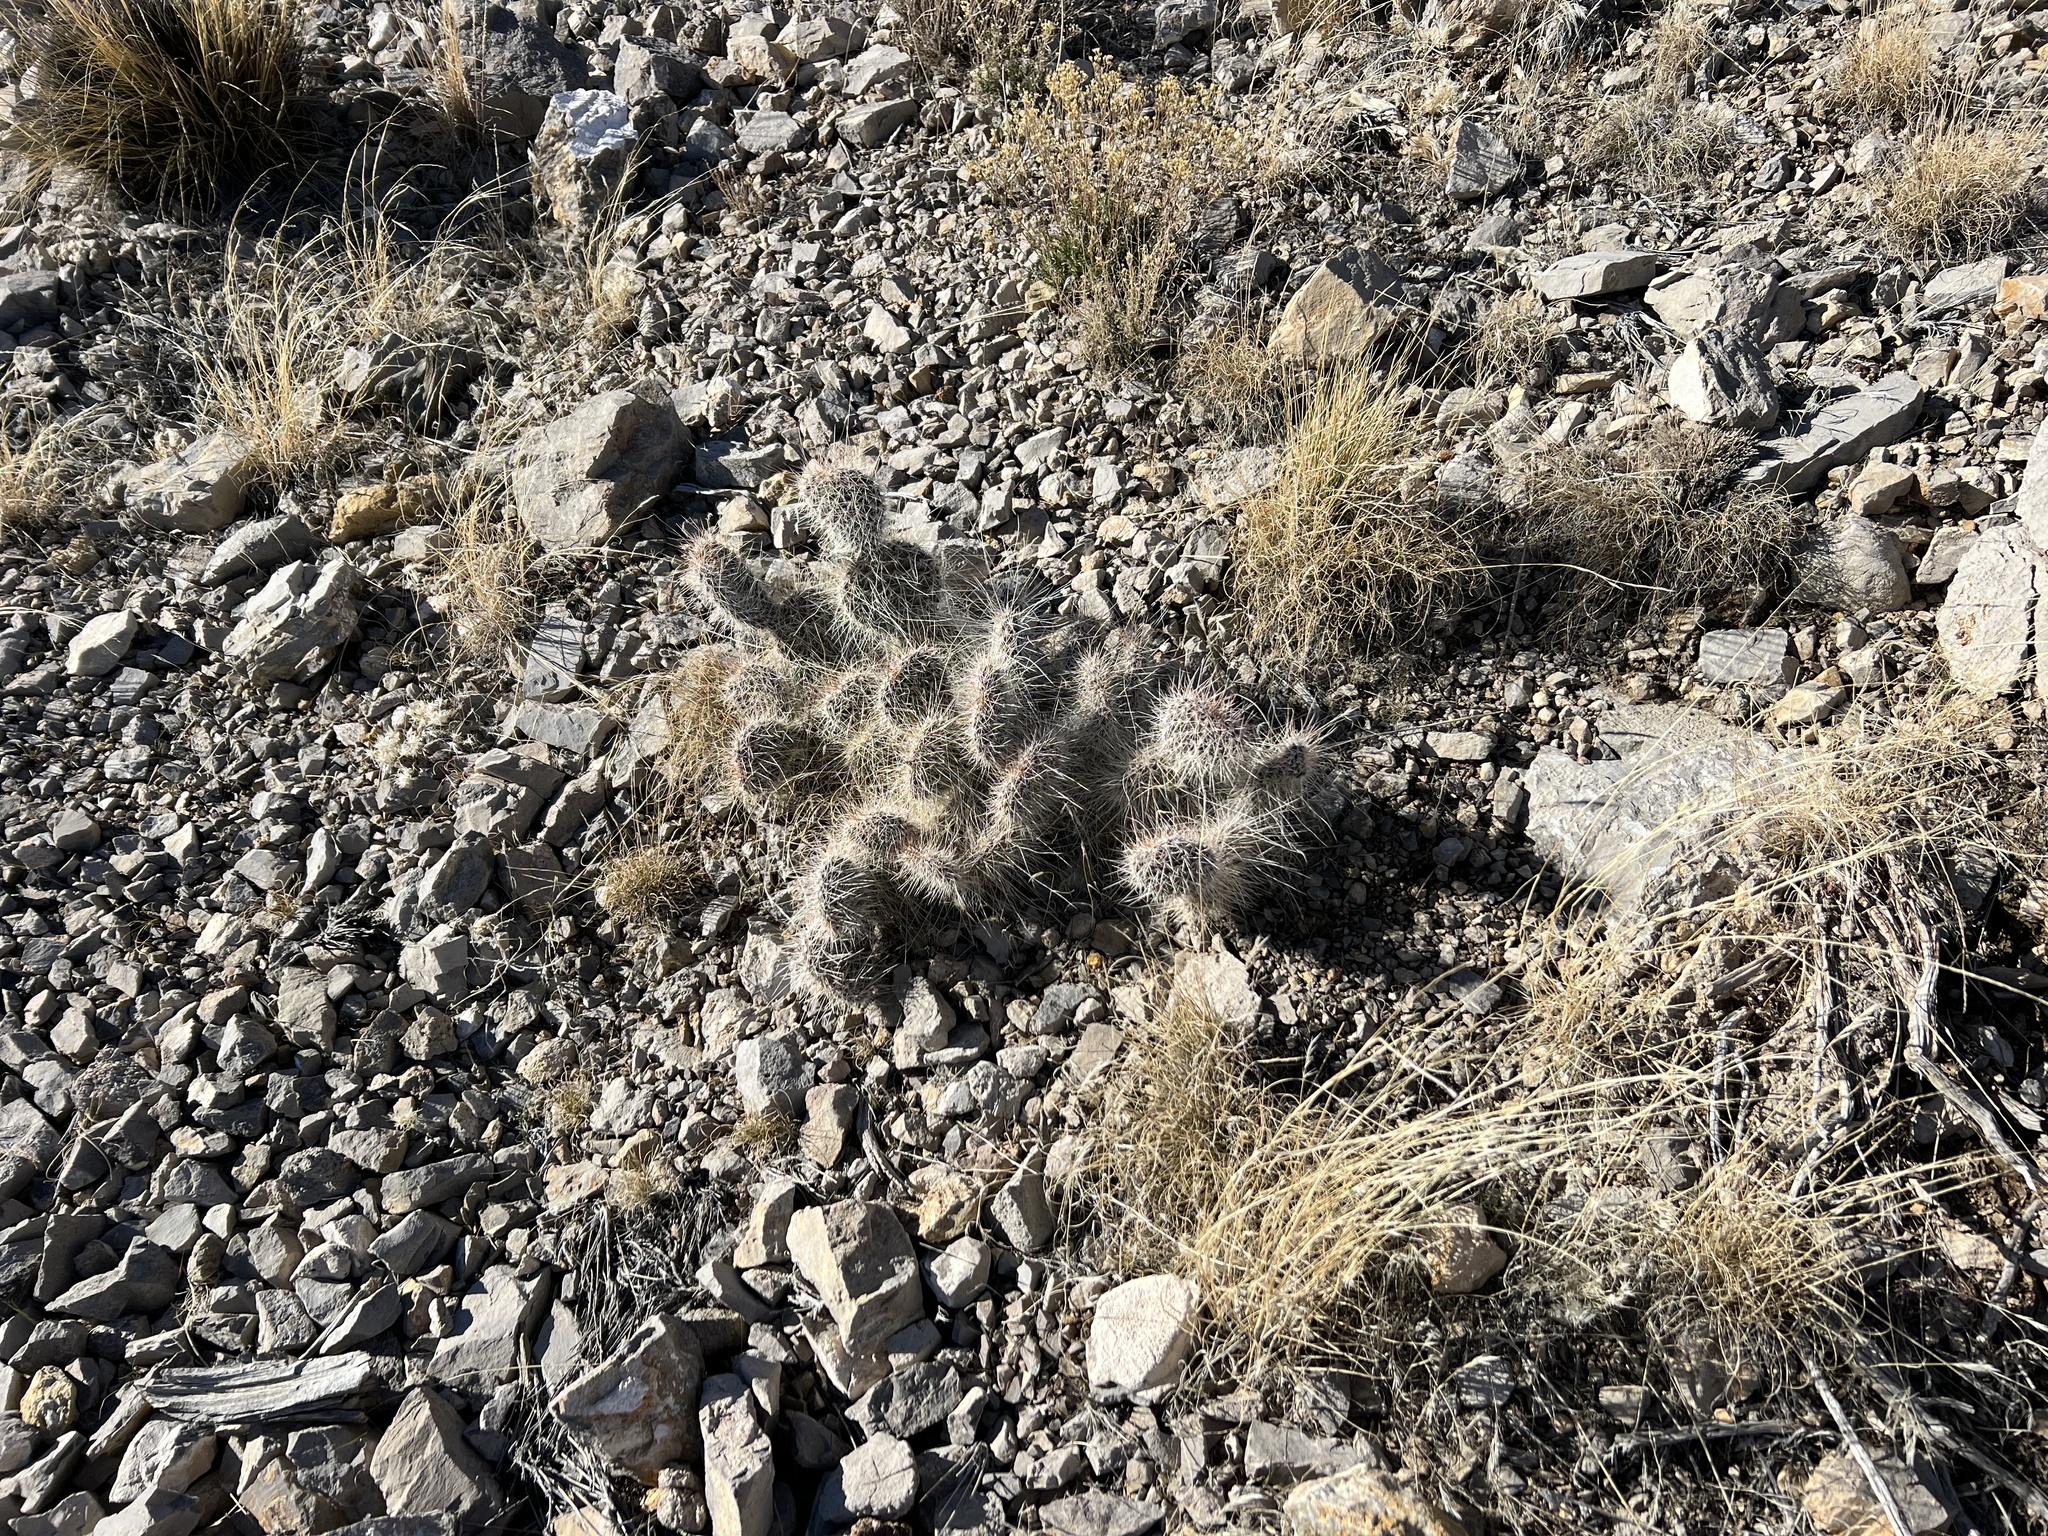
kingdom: Plantae
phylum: Tracheophyta
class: Magnoliopsida
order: Caryophyllales
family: Cactaceae
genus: Opuntia
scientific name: Opuntia polyacantha
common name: Plains prickly-pear
